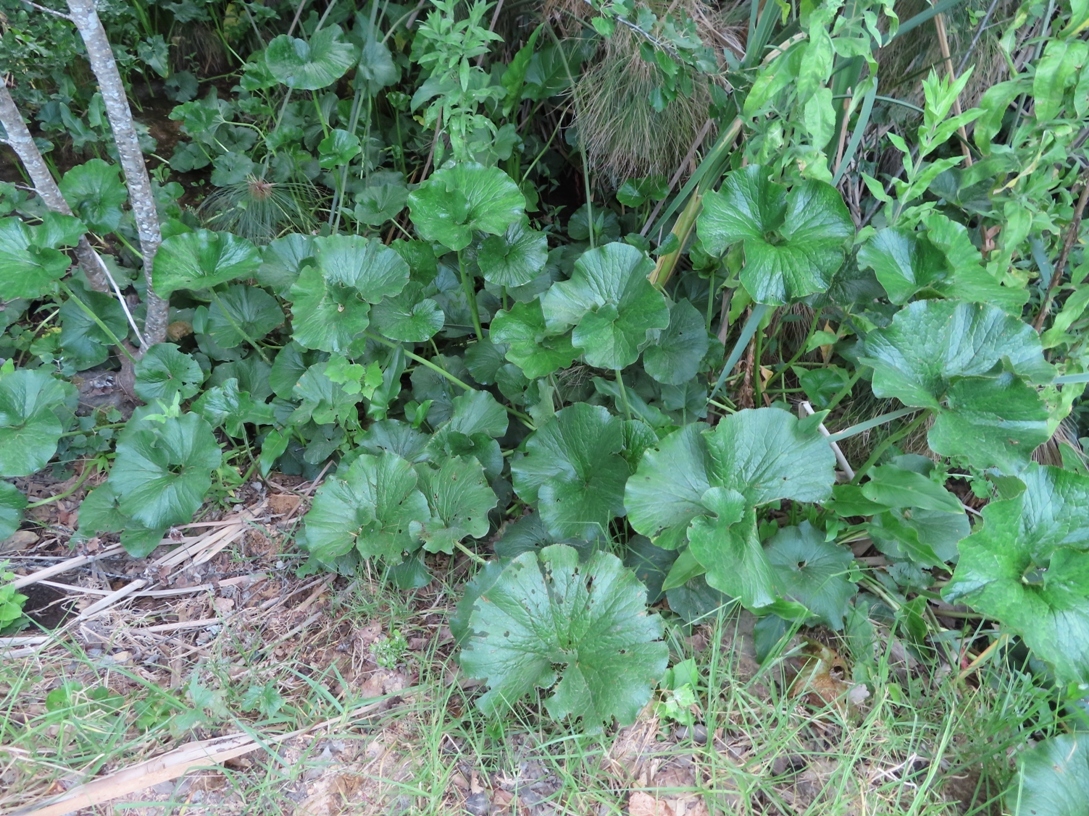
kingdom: Plantae
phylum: Tracheophyta
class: Magnoliopsida
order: Gunnerales
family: Gunneraceae
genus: Gunnera
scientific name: Gunnera perpensa
